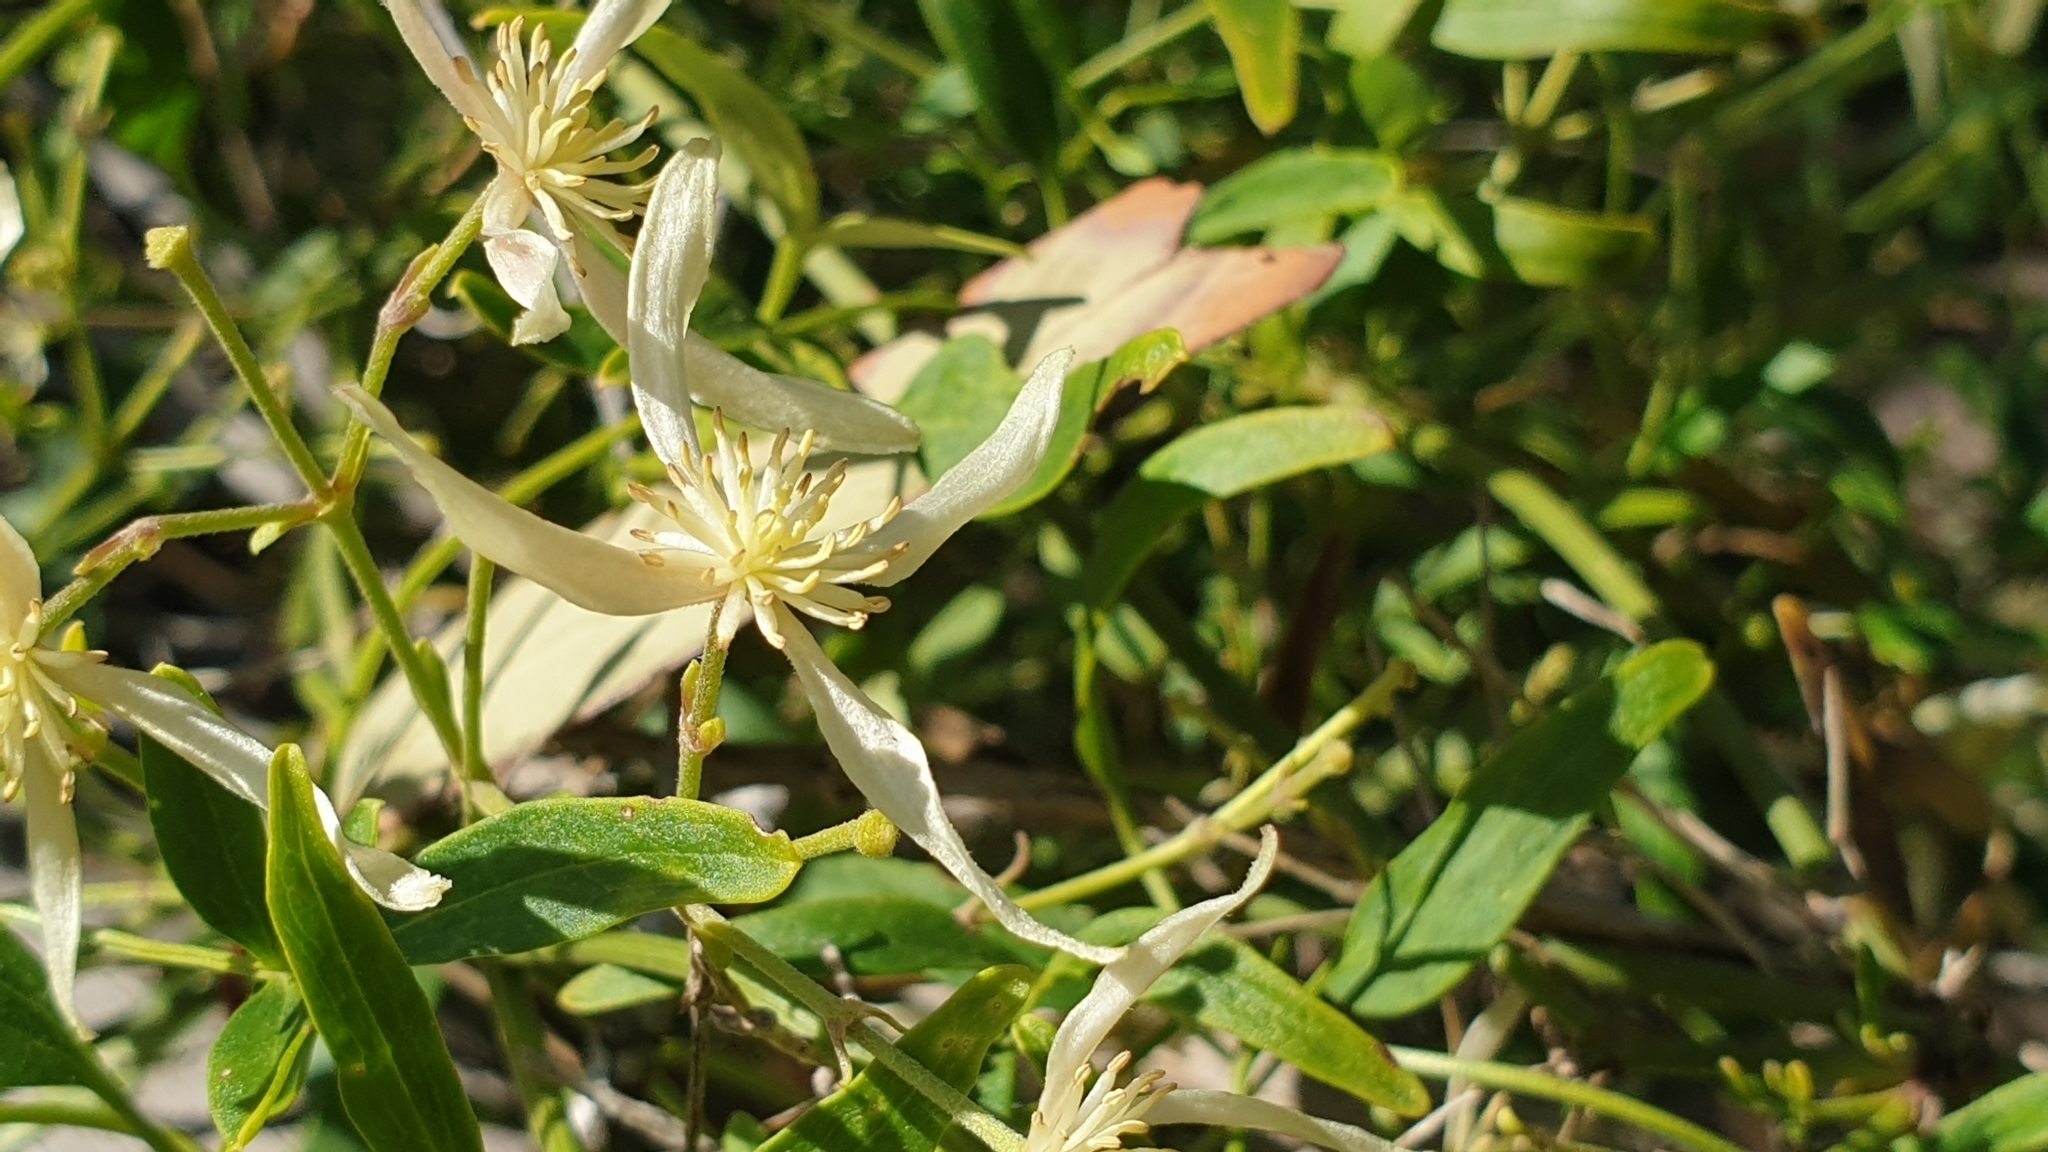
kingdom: Plantae
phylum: Tracheophyta
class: Magnoliopsida
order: Ranunculales
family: Ranunculaceae
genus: Clematis
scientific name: Clematis microphylla
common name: Headachevine
